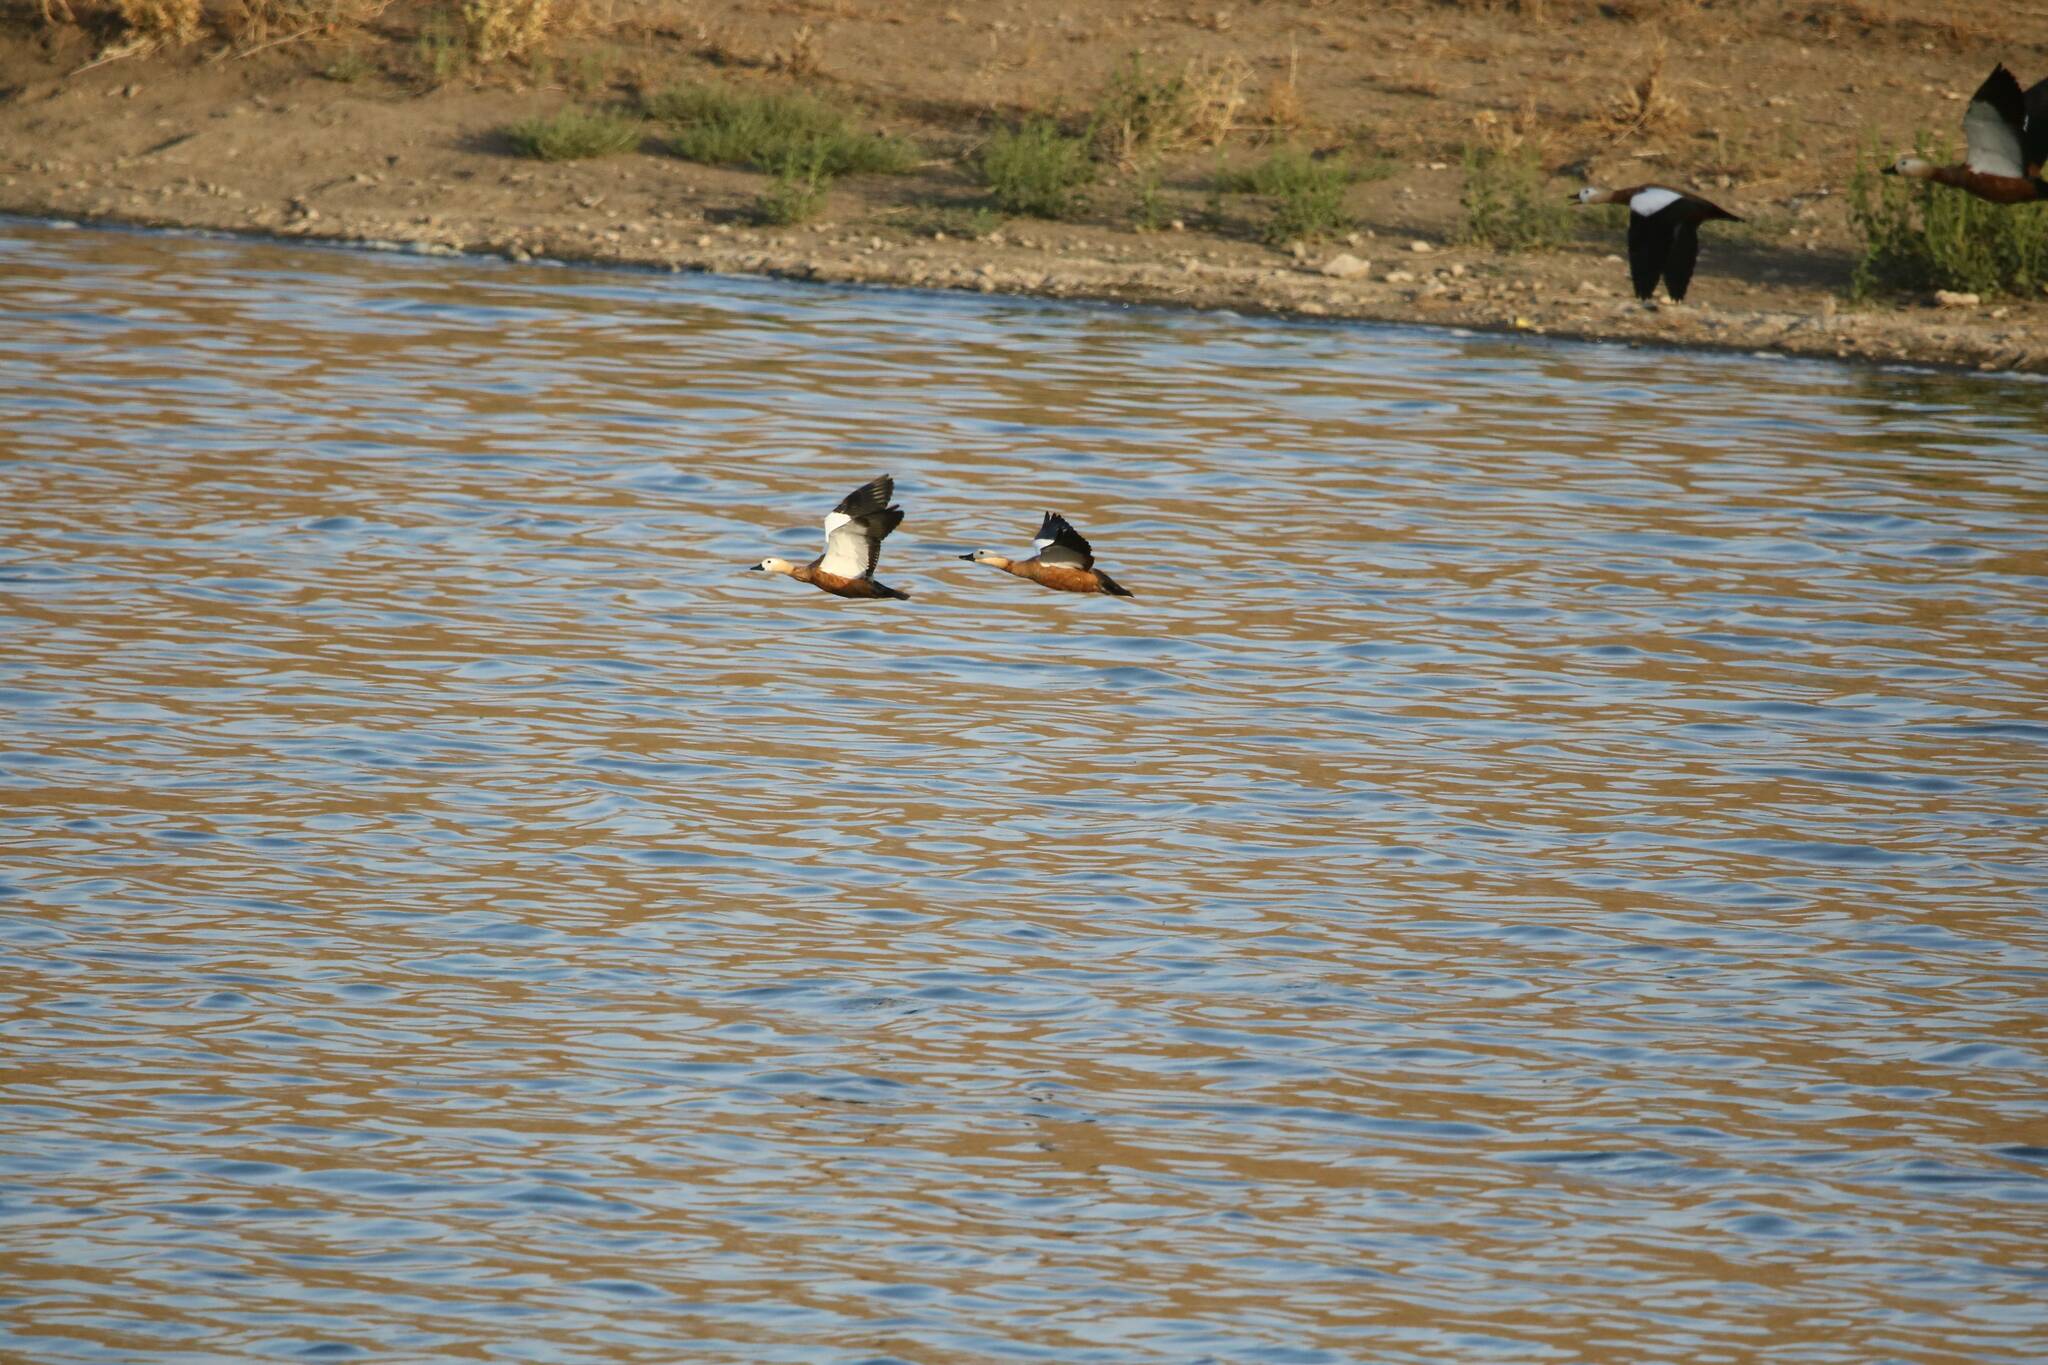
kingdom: Animalia
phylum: Chordata
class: Aves
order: Anseriformes
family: Anatidae
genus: Tadorna
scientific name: Tadorna ferruginea
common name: Ruddy shelduck
